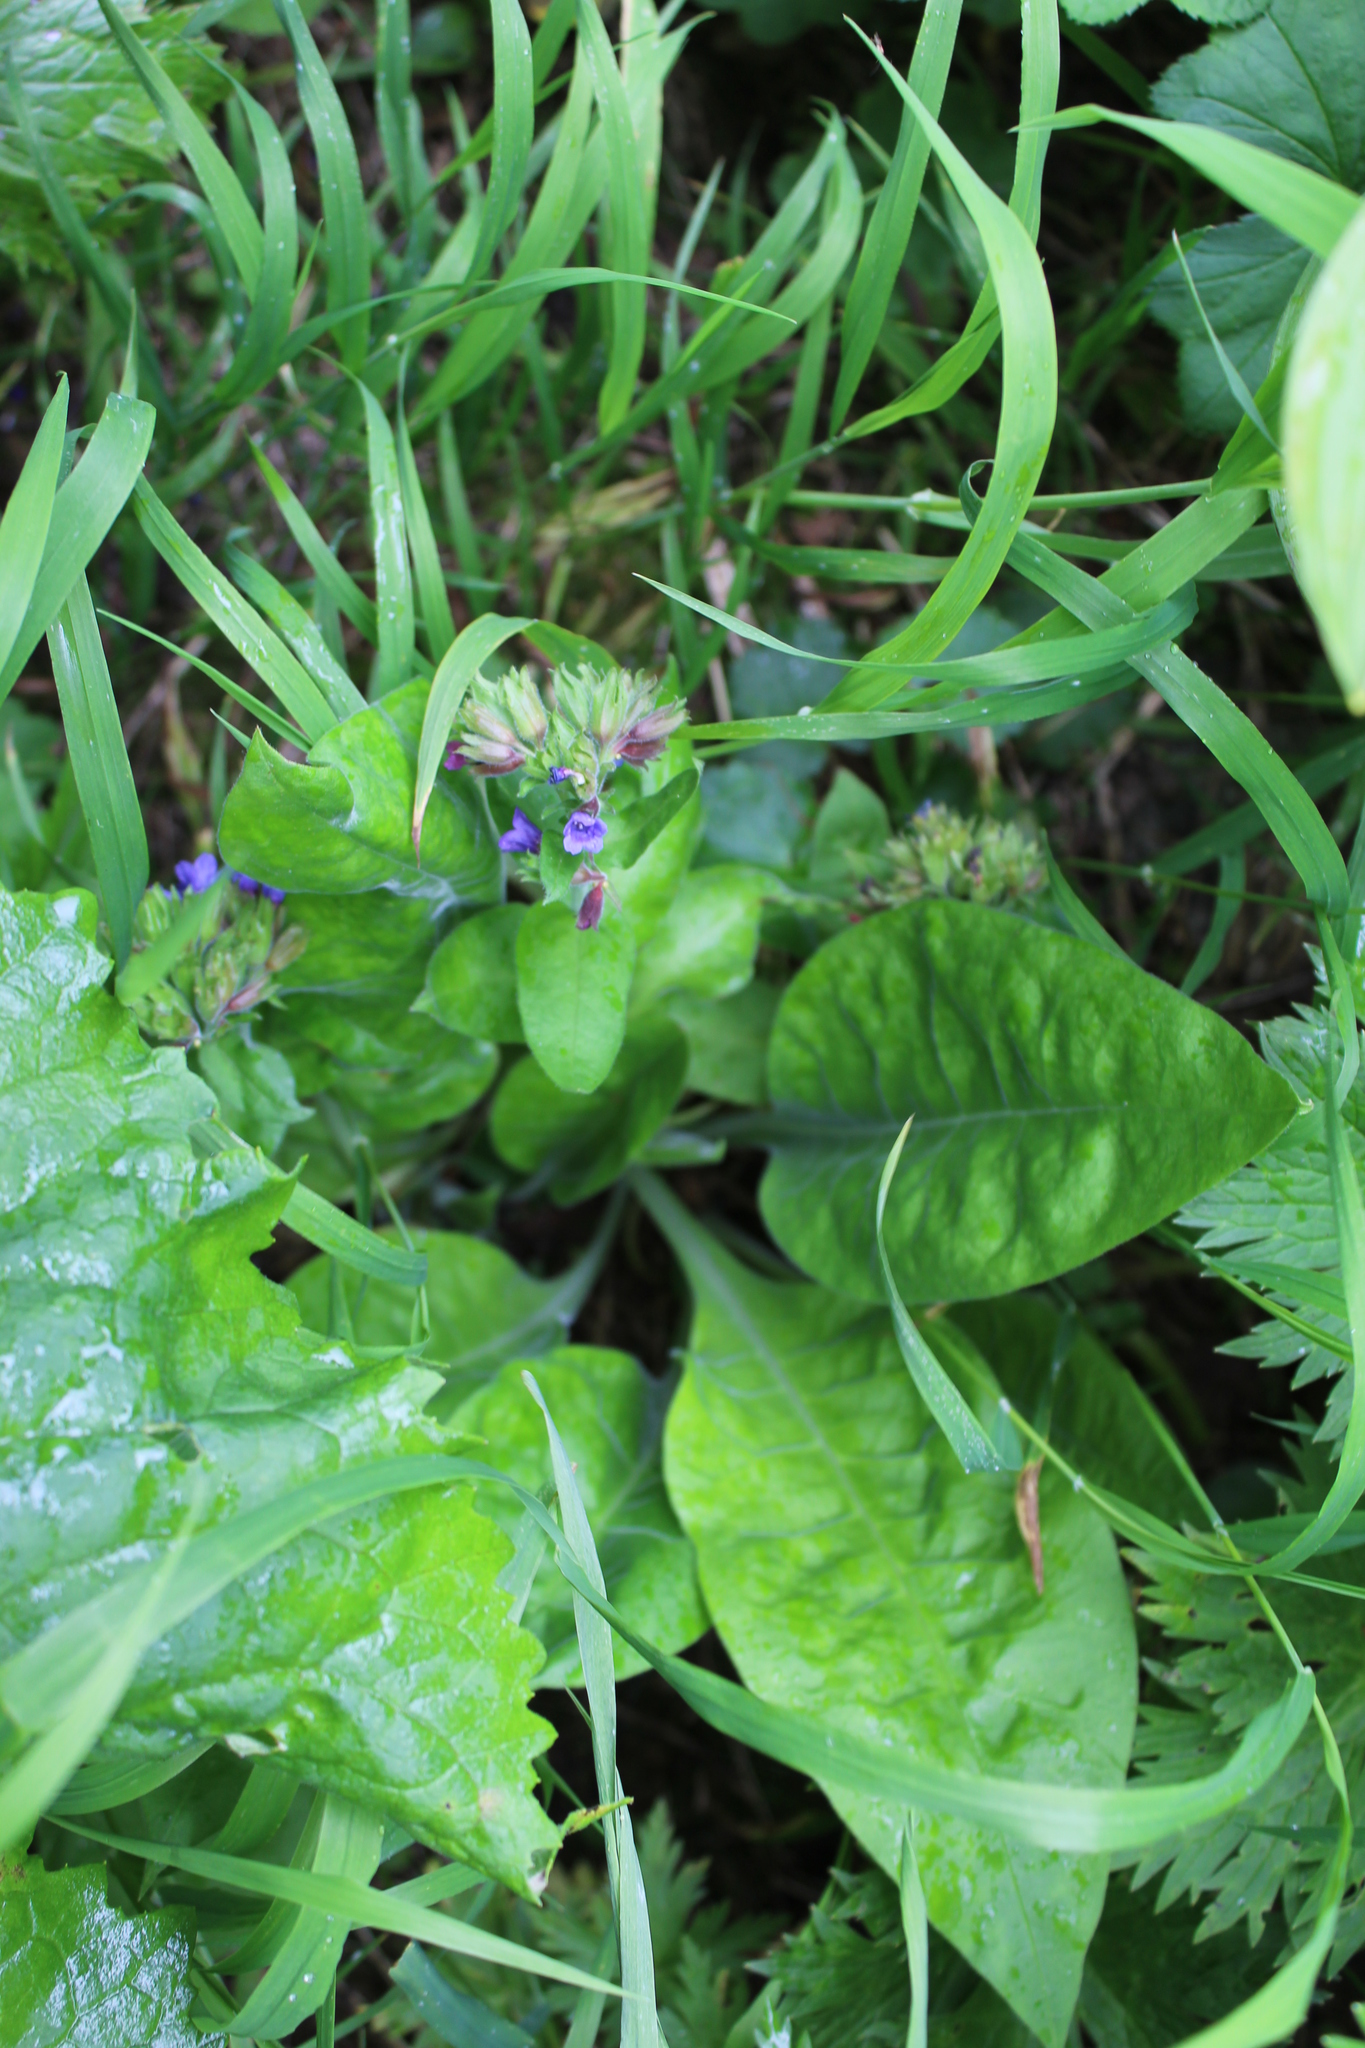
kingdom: Plantae
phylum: Tracheophyta
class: Magnoliopsida
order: Boraginales
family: Boraginaceae
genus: Pulmonaria
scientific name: Pulmonaria mollis
